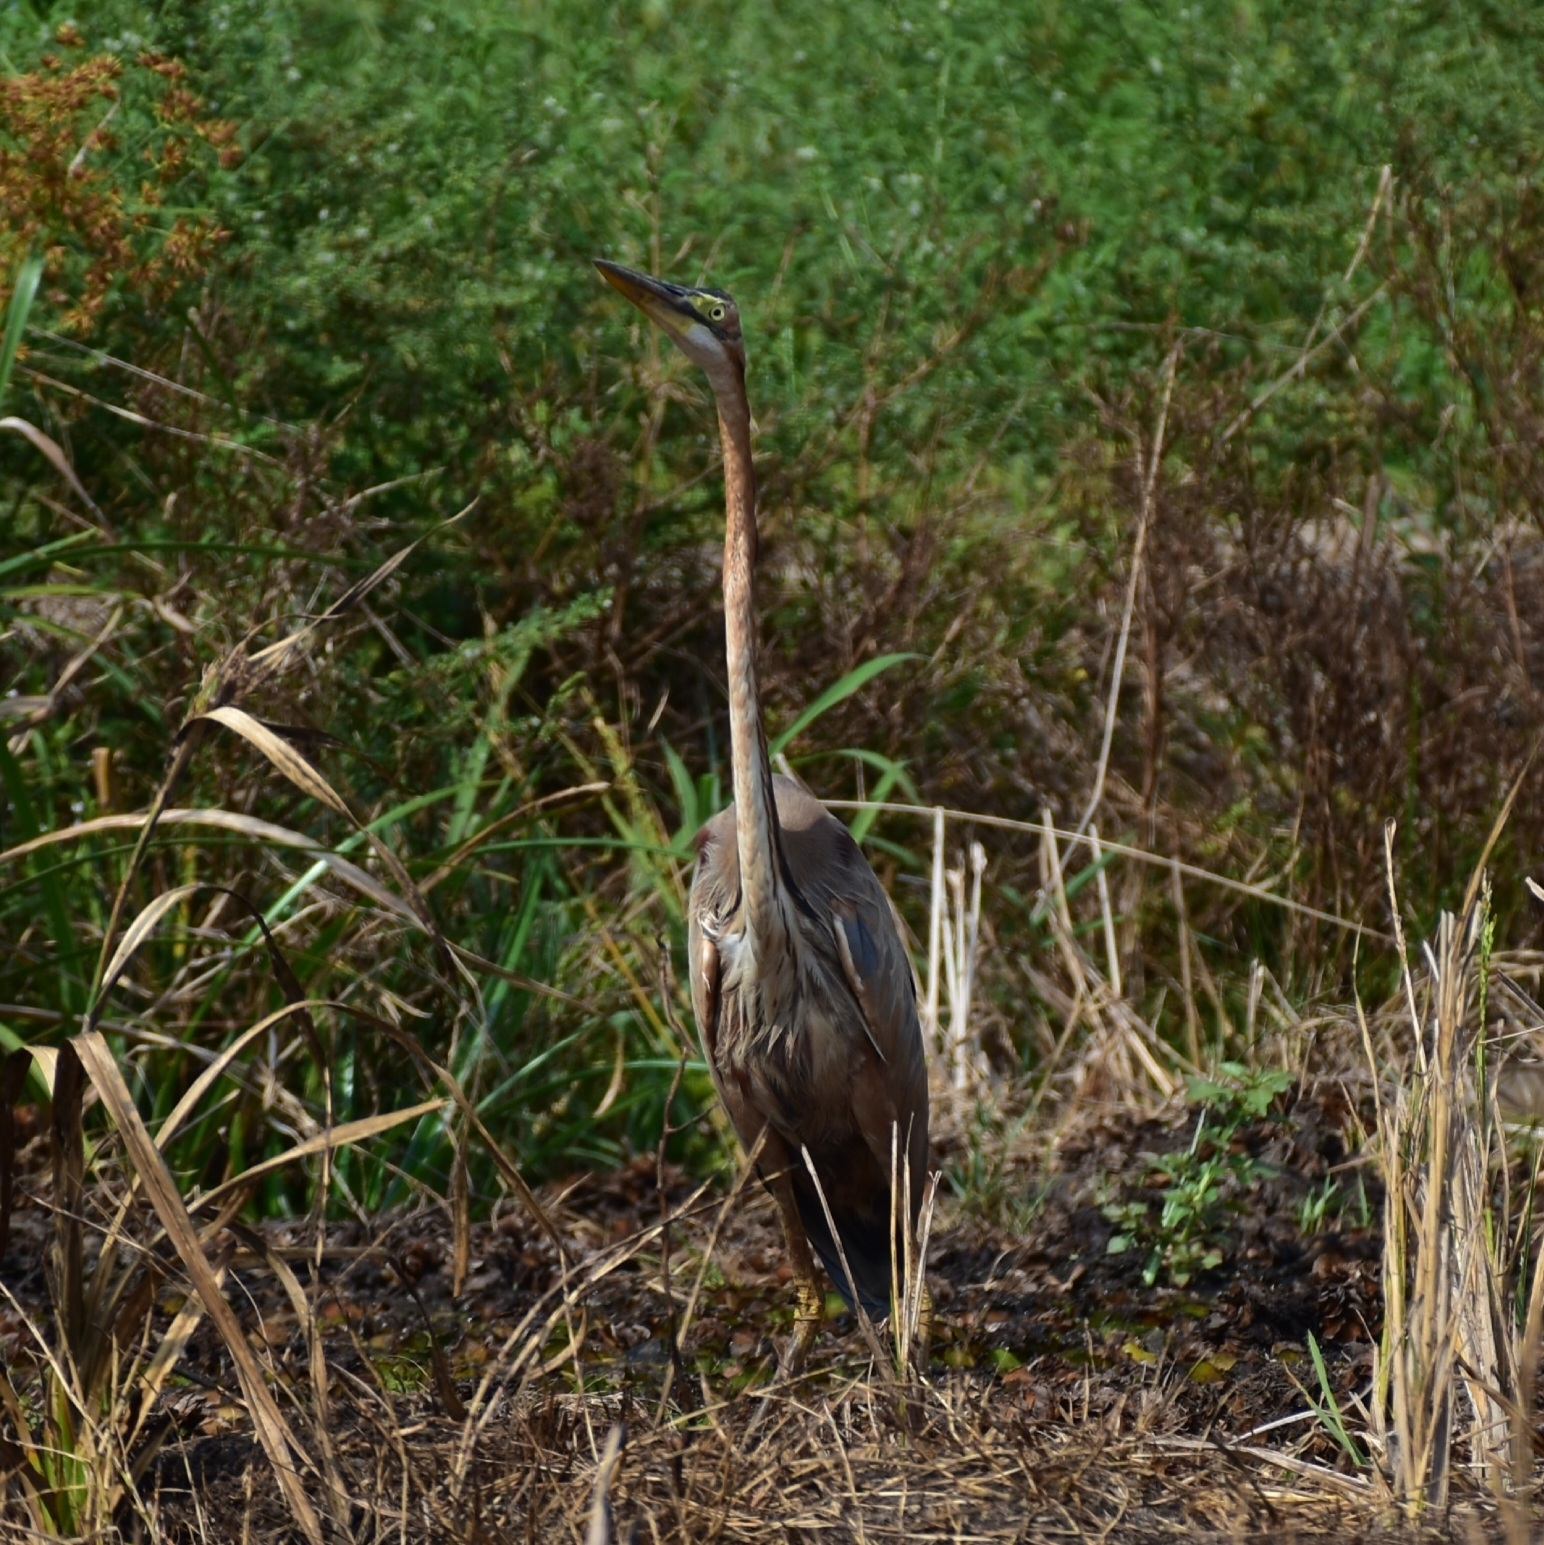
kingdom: Animalia
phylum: Chordata
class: Aves
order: Pelecaniformes
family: Ardeidae
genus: Ardea
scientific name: Ardea purpurea
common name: Purple heron
